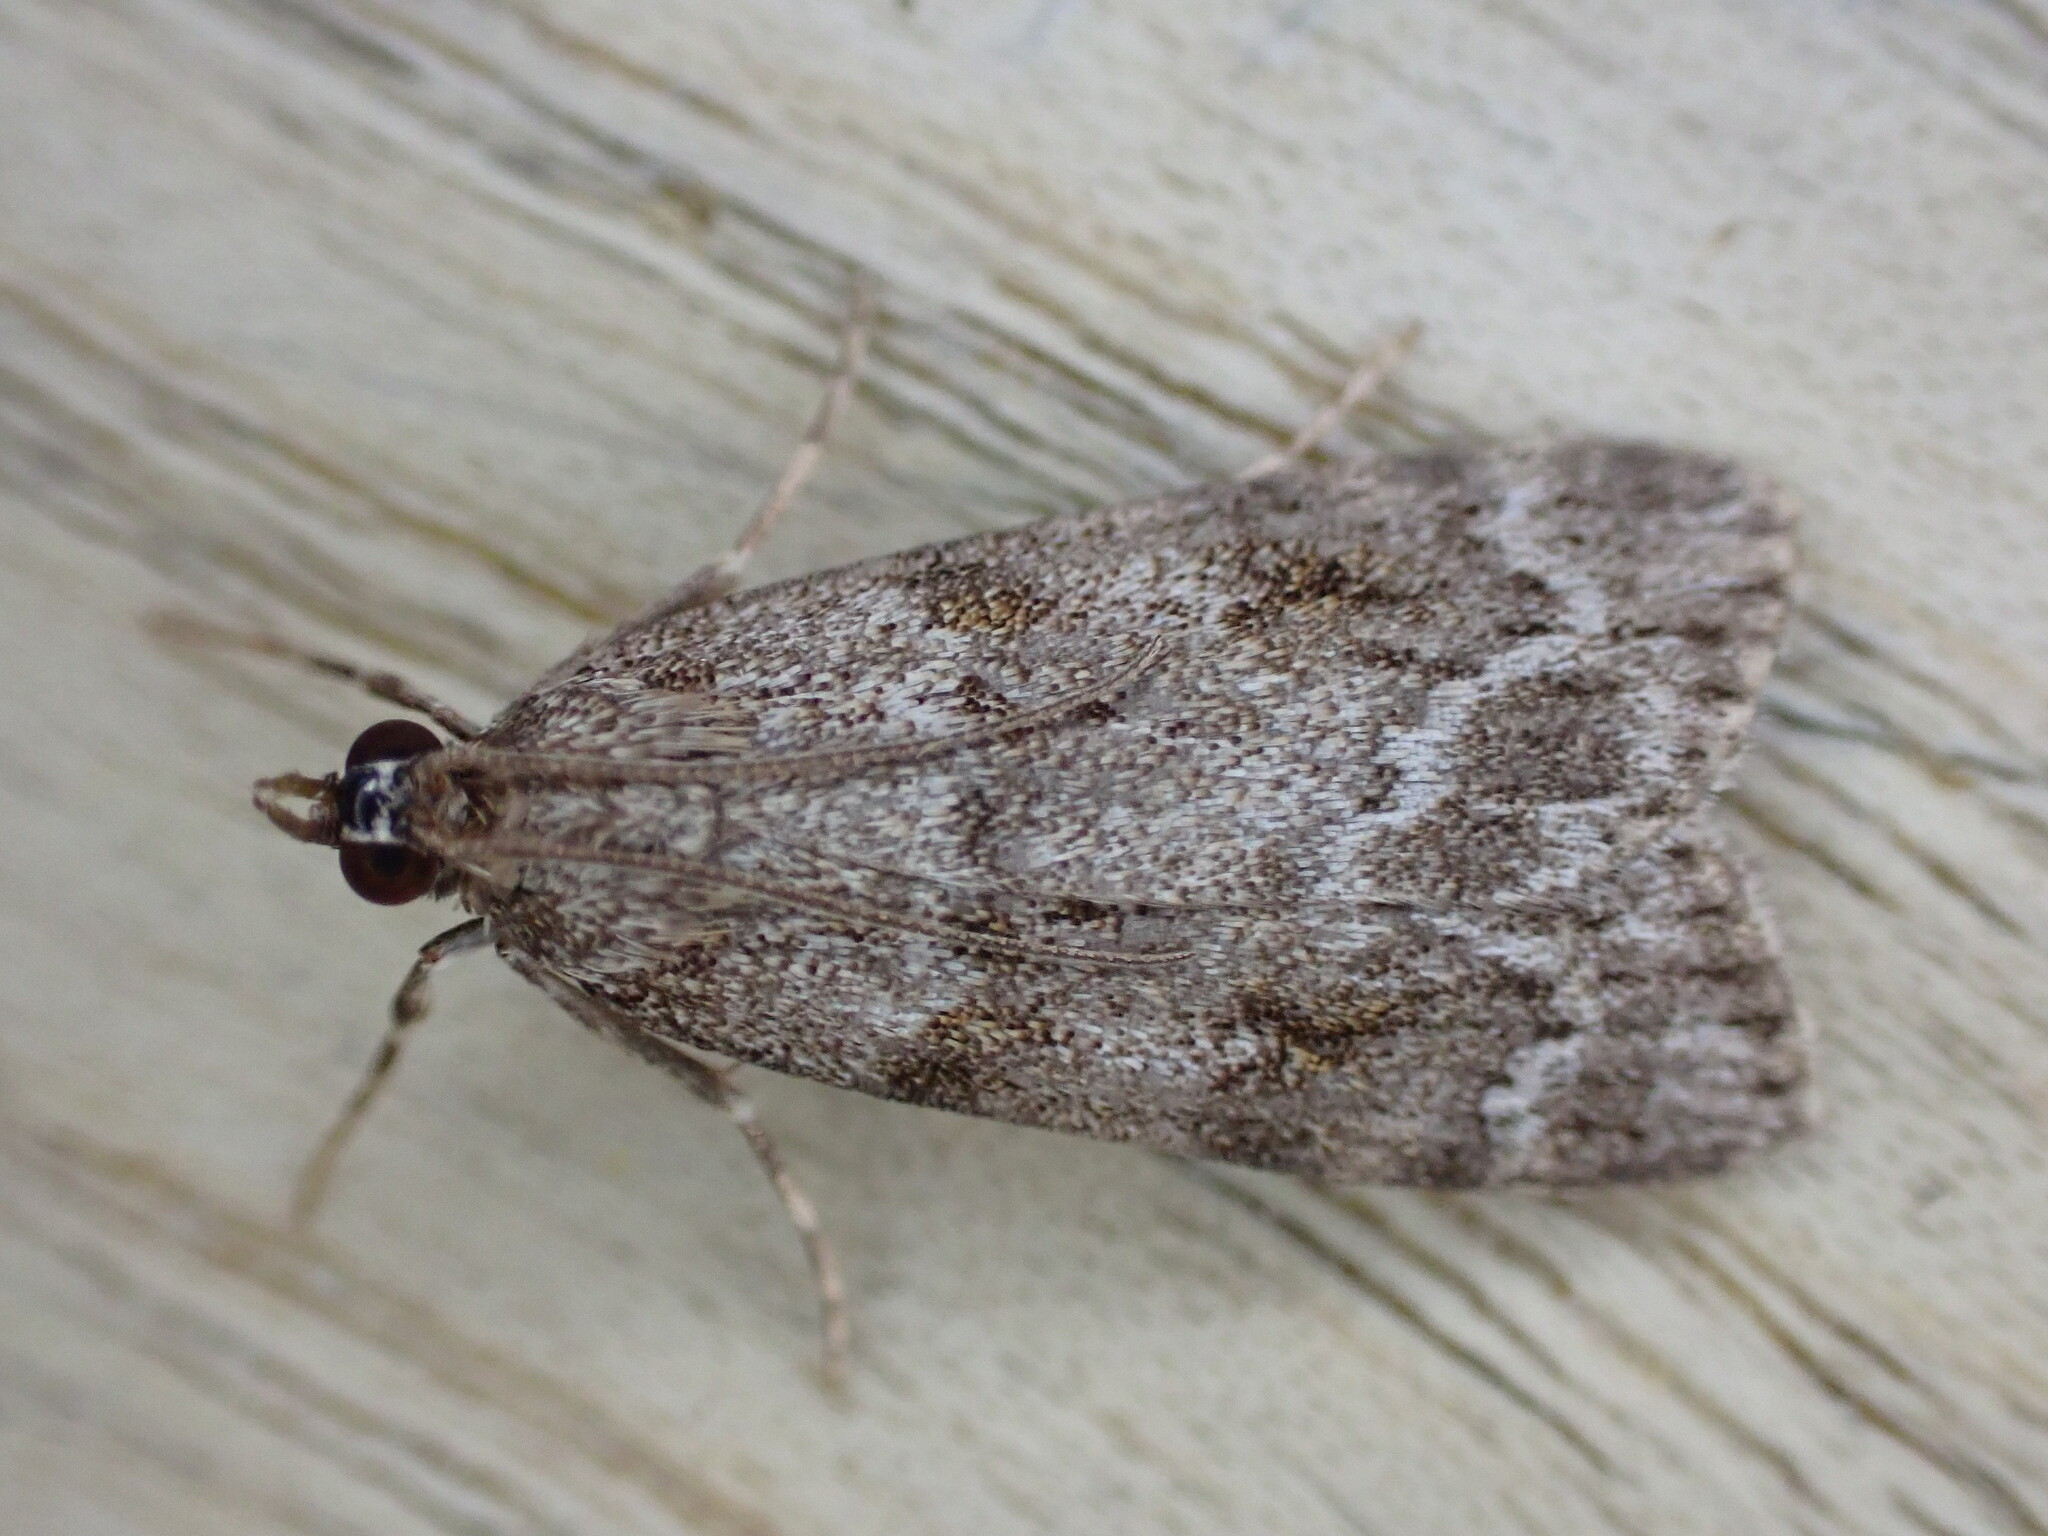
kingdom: Animalia
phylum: Arthropoda
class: Insecta
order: Lepidoptera
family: Crambidae
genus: Scoparia
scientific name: Scoparia ambigualis
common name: Common grey
